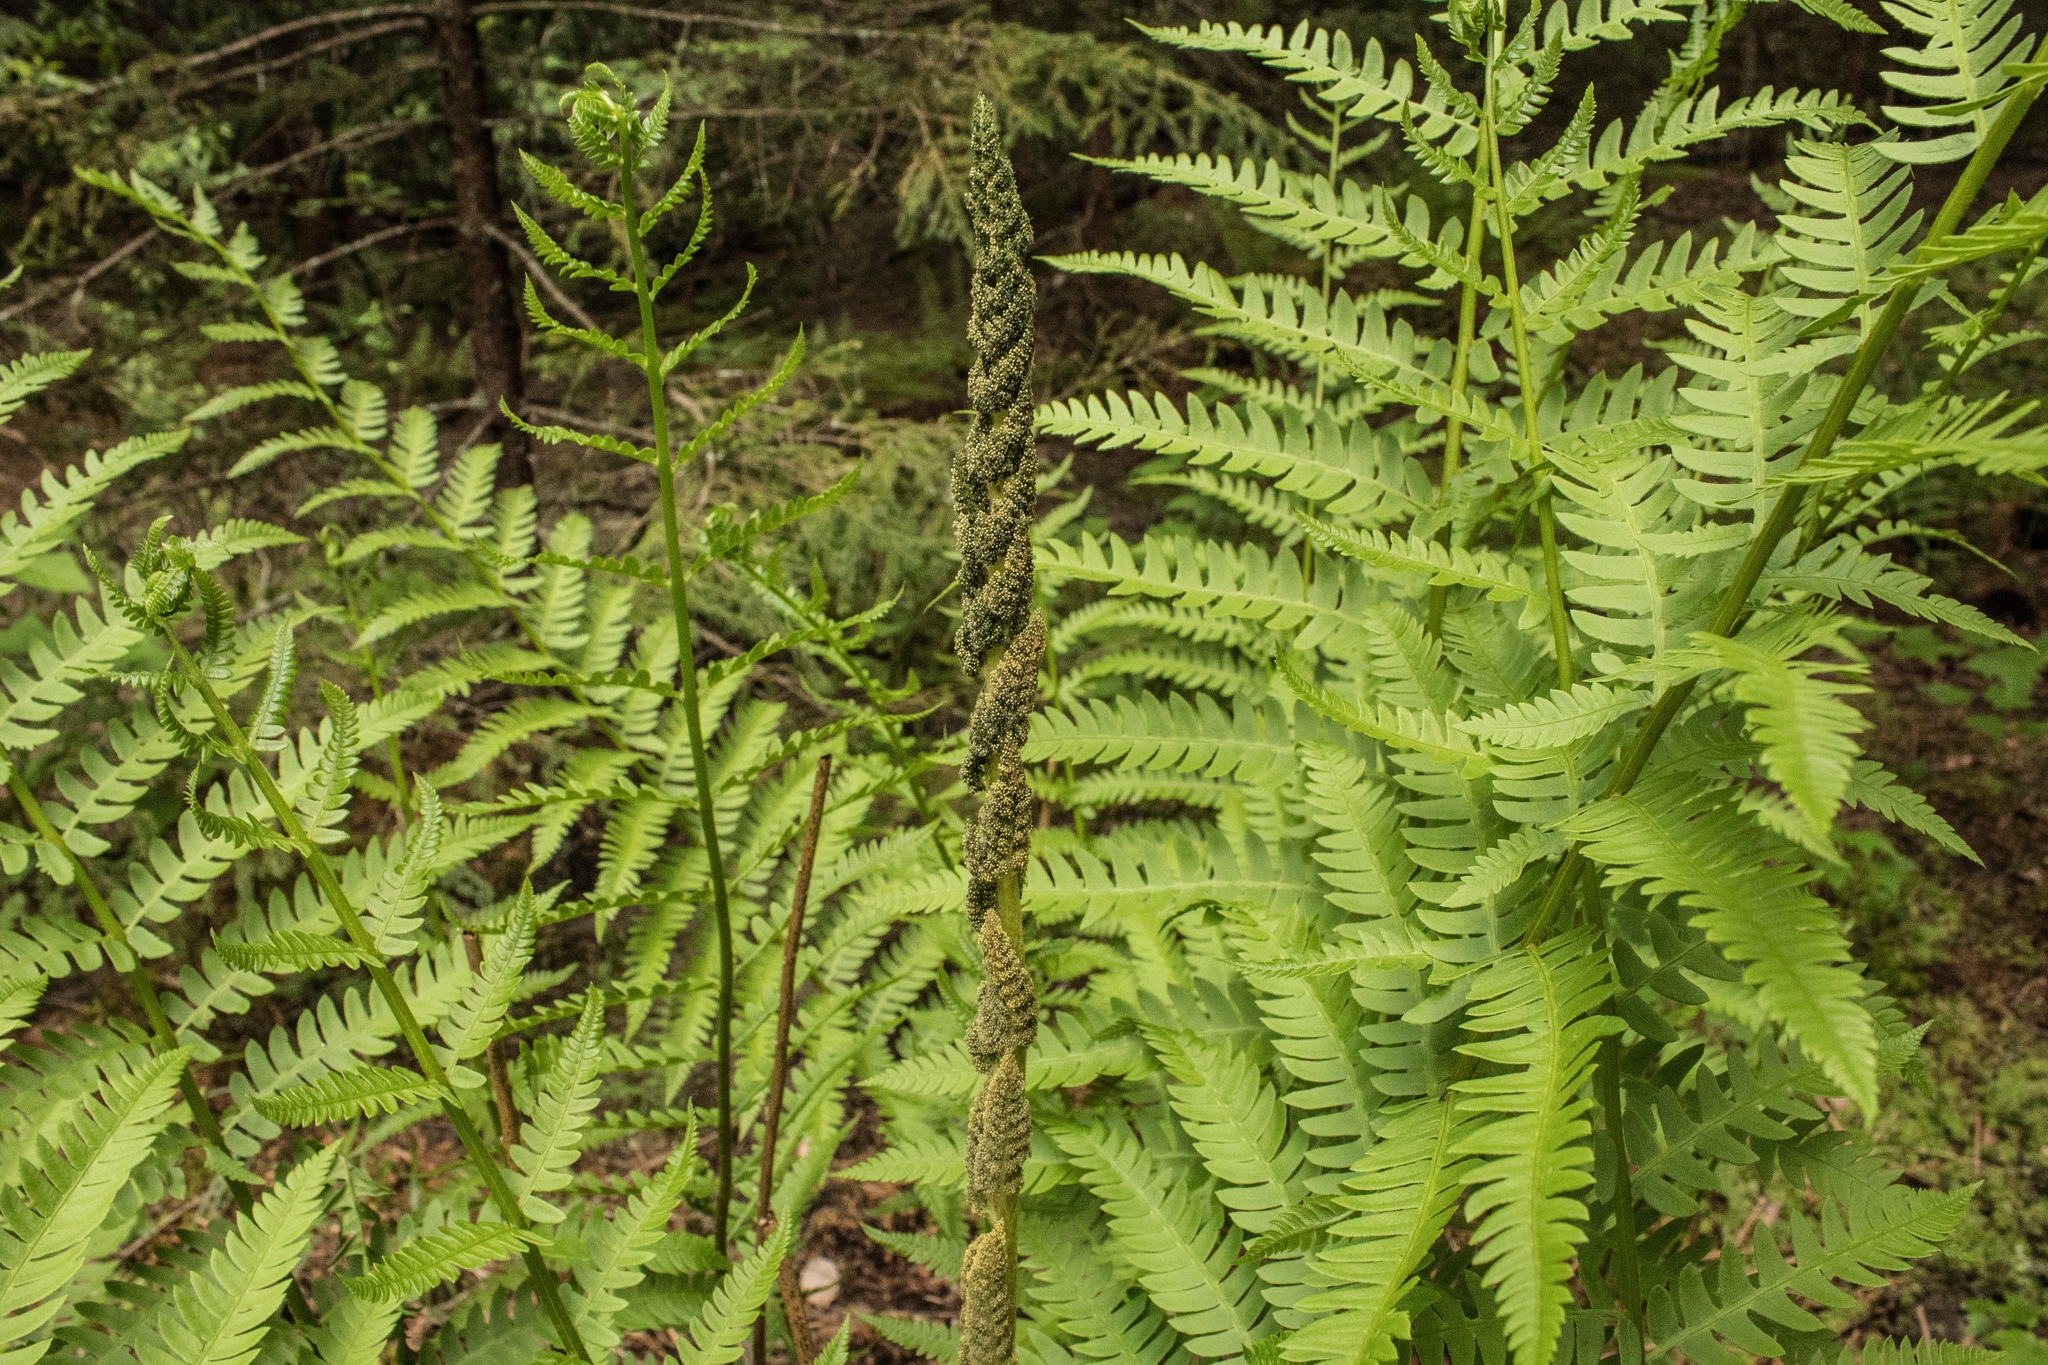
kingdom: Plantae
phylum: Tracheophyta
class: Polypodiopsida
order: Osmundales
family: Osmundaceae
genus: Osmundastrum
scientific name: Osmundastrum cinnamomeum
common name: Cinnamon fern
